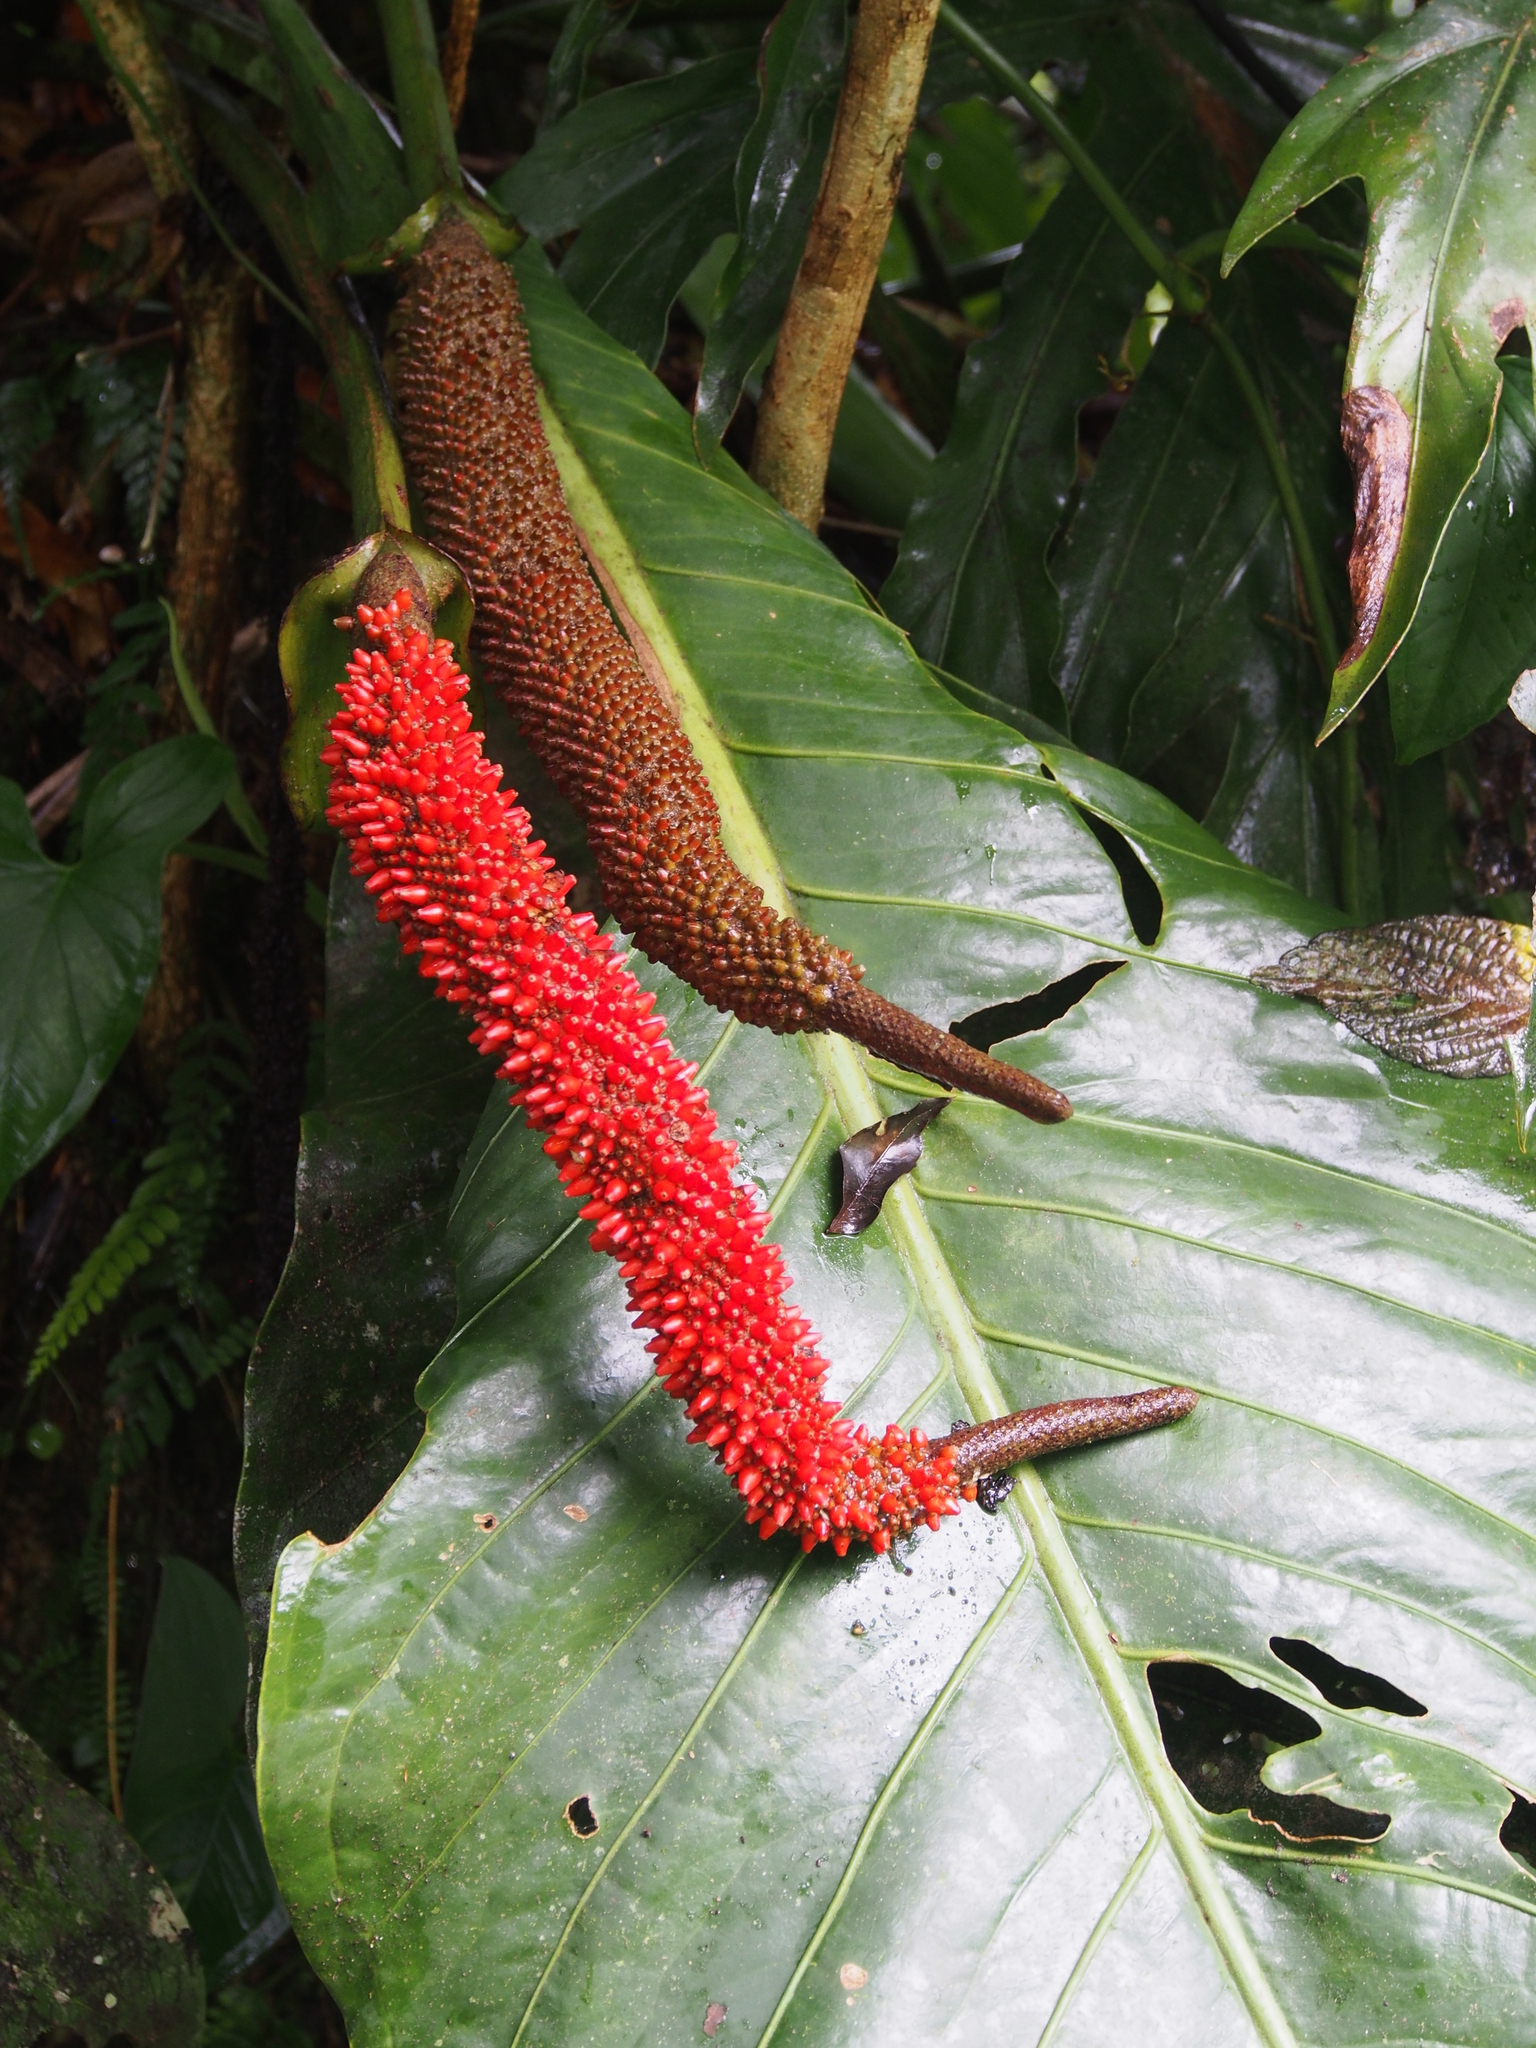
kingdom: Plantae
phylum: Tracheophyta
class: Liliopsida
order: Alismatales
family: Araceae
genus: Anthurium
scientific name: Anthurium upalaense
